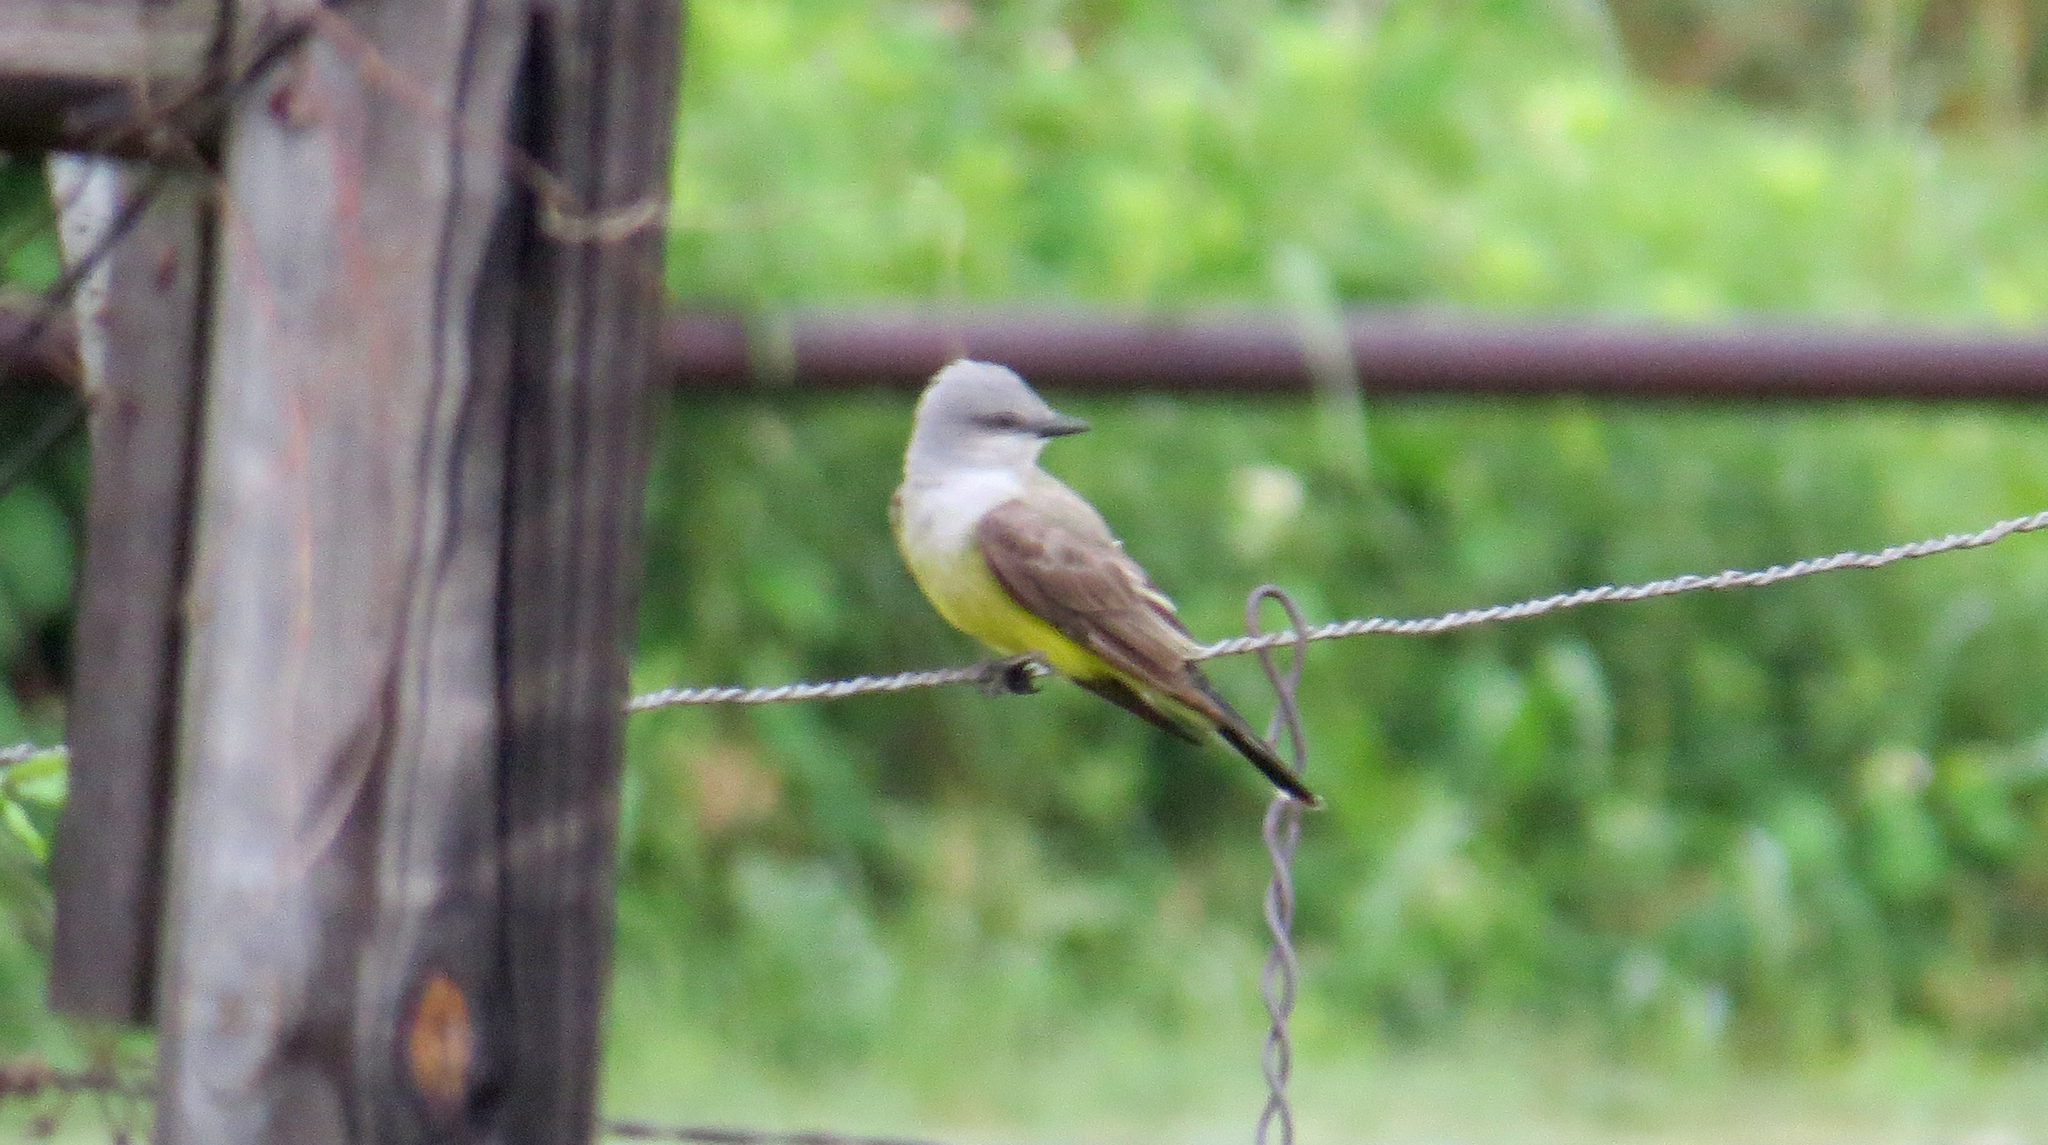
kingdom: Animalia
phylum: Chordata
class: Aves
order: Passeriformes
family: Tyrannidae
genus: Tyrannus
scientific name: Tyrannus verticalis
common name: Western kingbird
